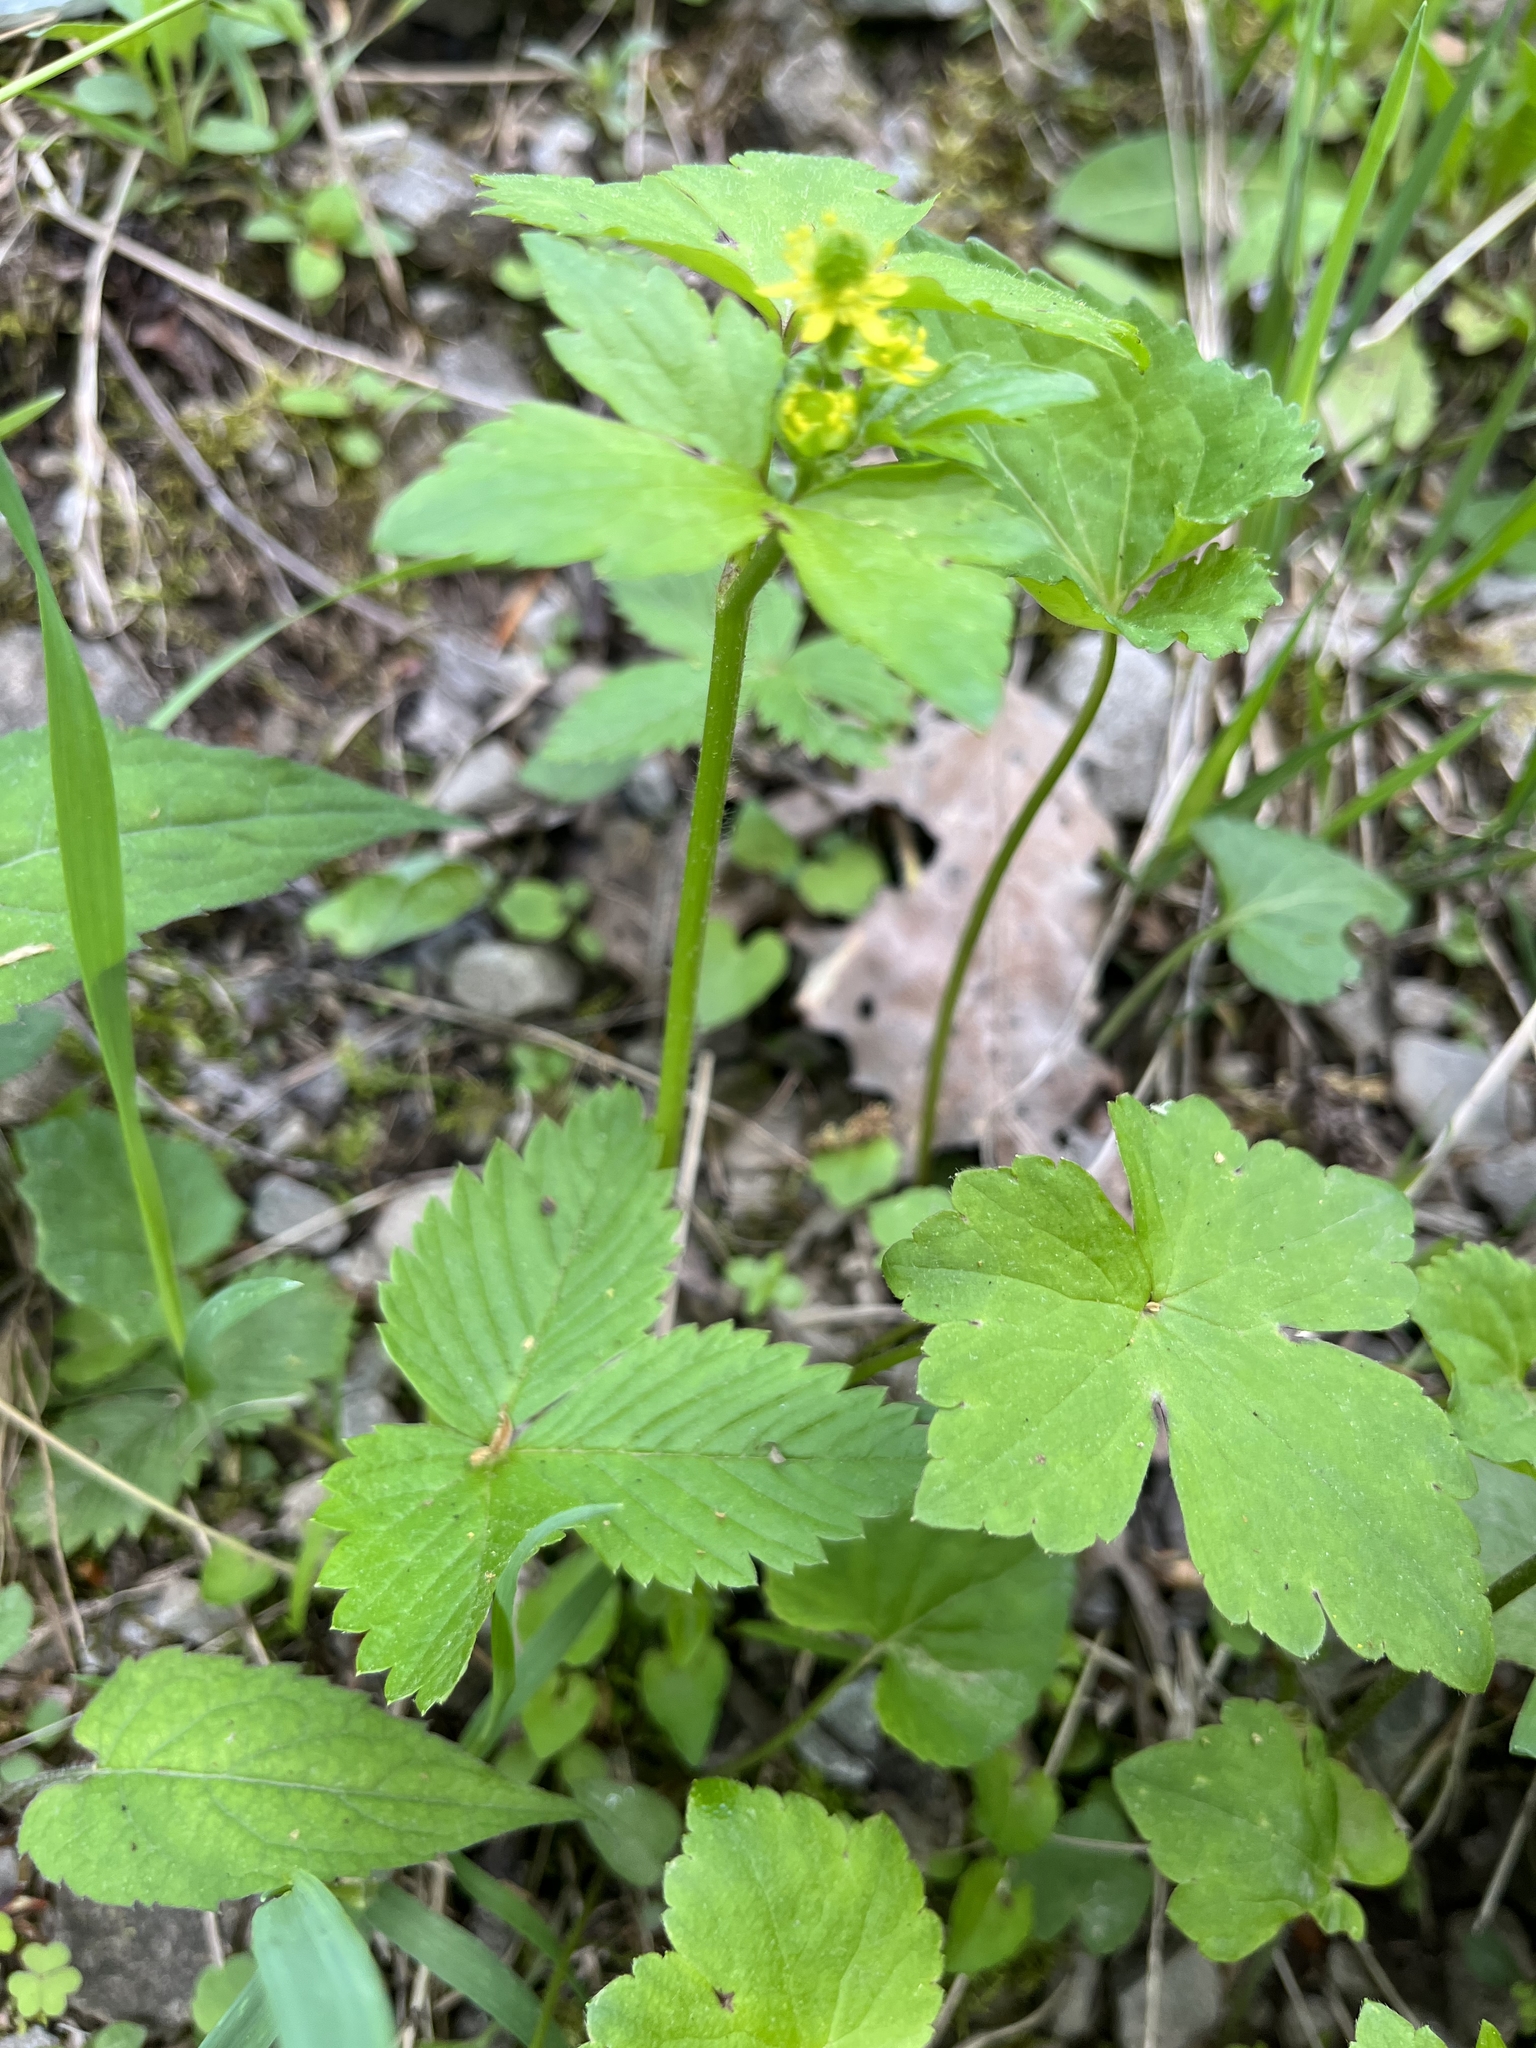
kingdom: Plantae
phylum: Tracheophyta
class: Magnoliopsida
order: Ranunculales
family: Ranunculaceae
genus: Ranunculus
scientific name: Ranunculus recurvatus
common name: Blisterwort
